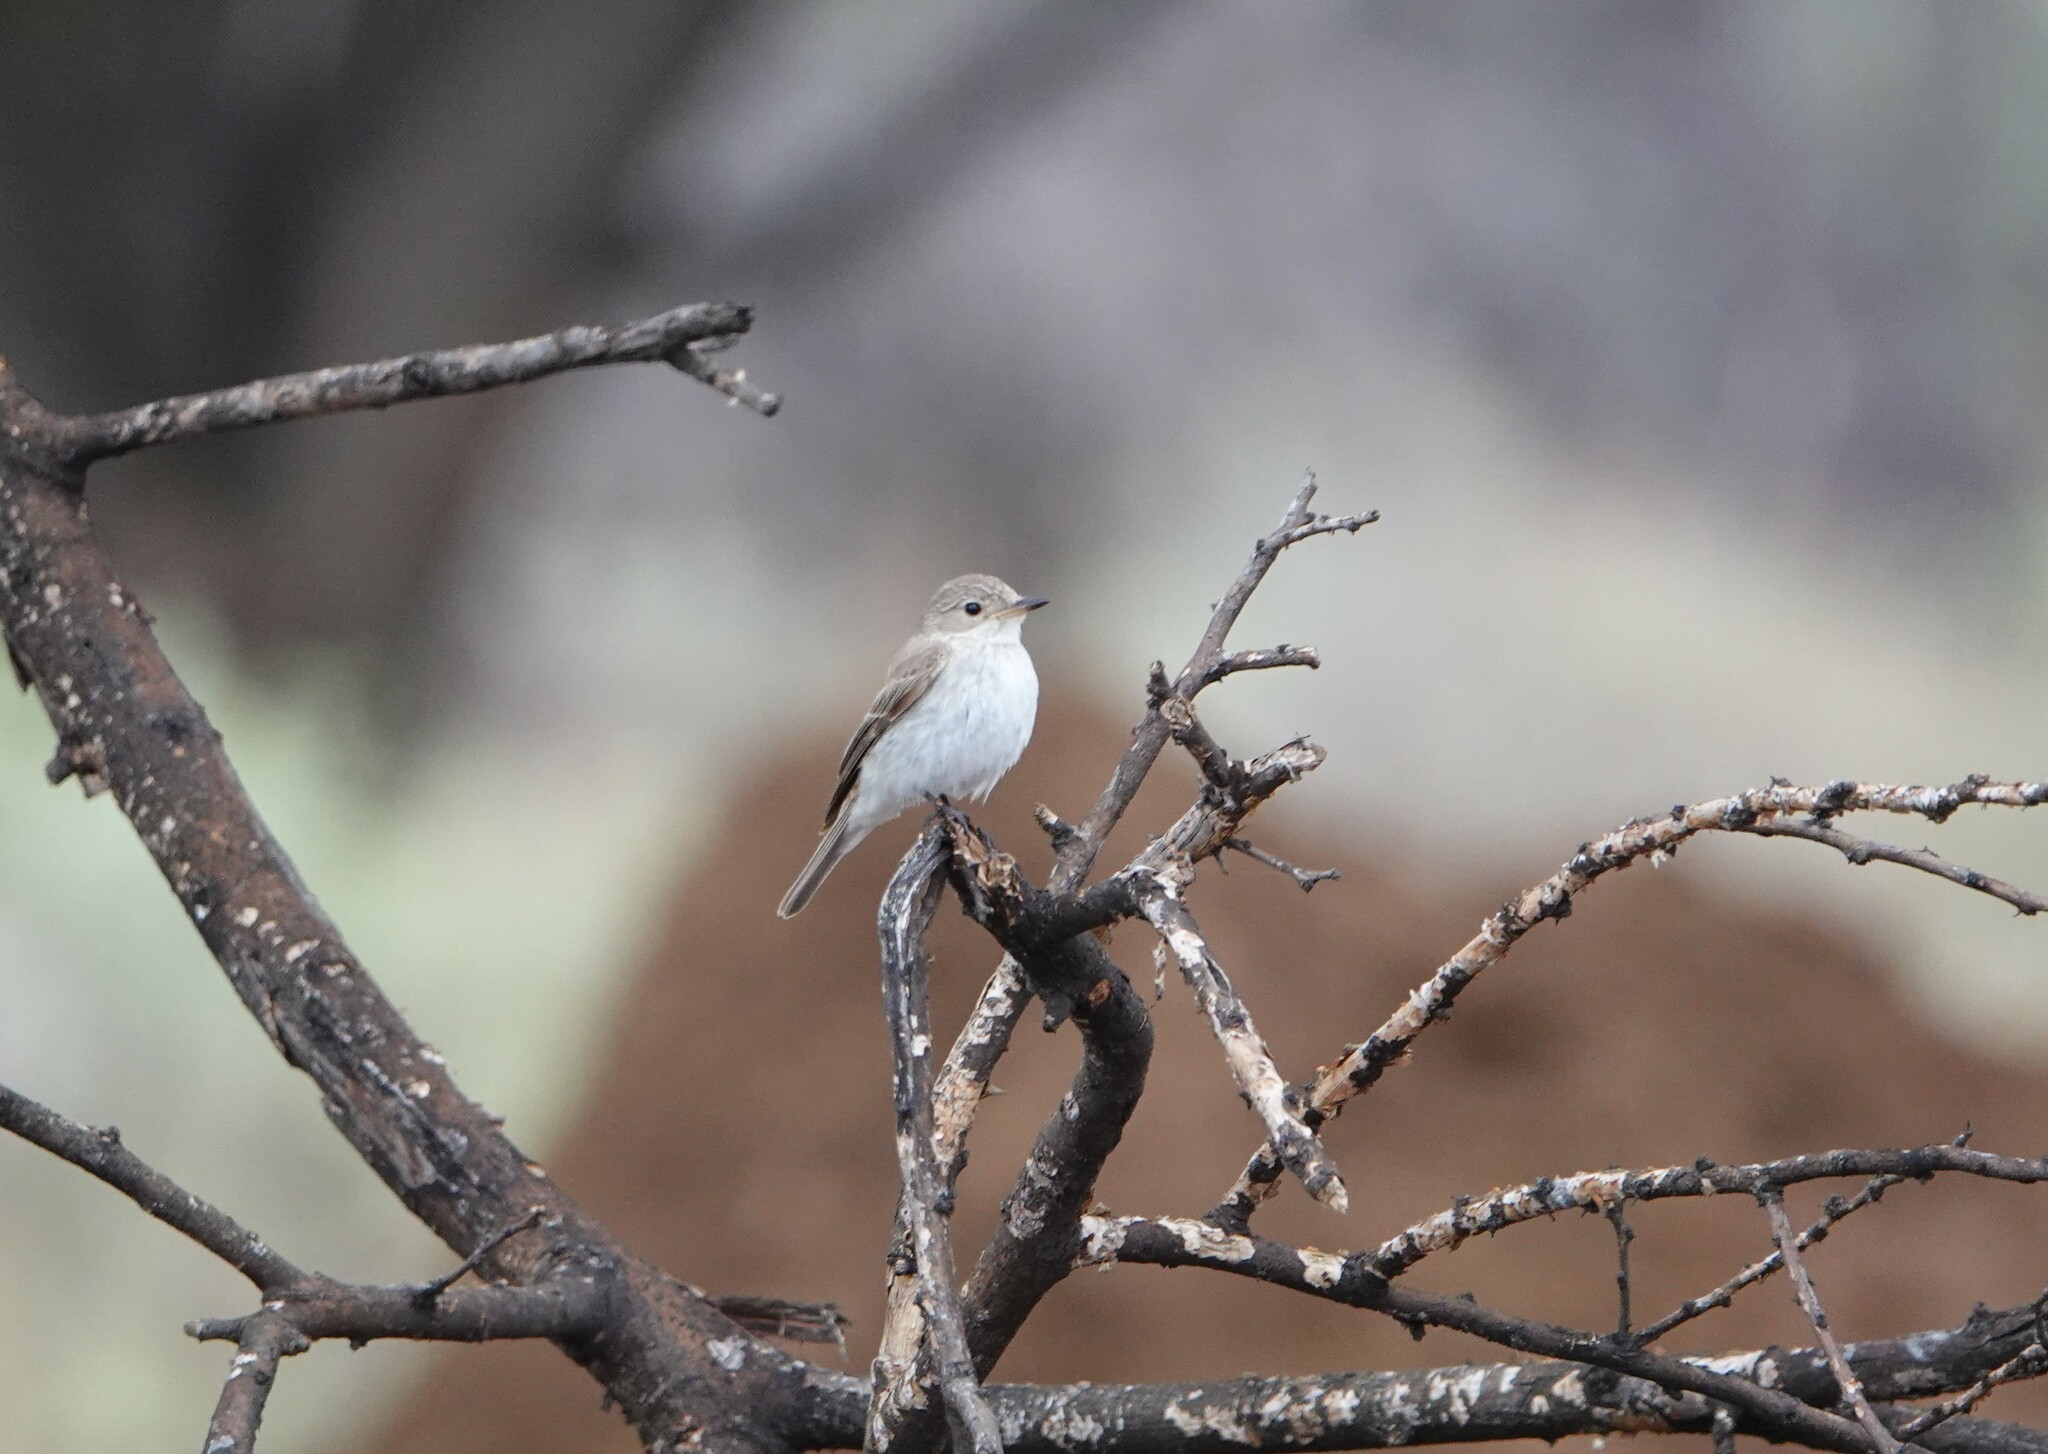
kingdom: Animalia
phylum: Chordata
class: Aves
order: Passeriformes
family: Muscicapidae
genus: Muscicapa
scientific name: Muscicapa striata
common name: Spotted flycatcher
